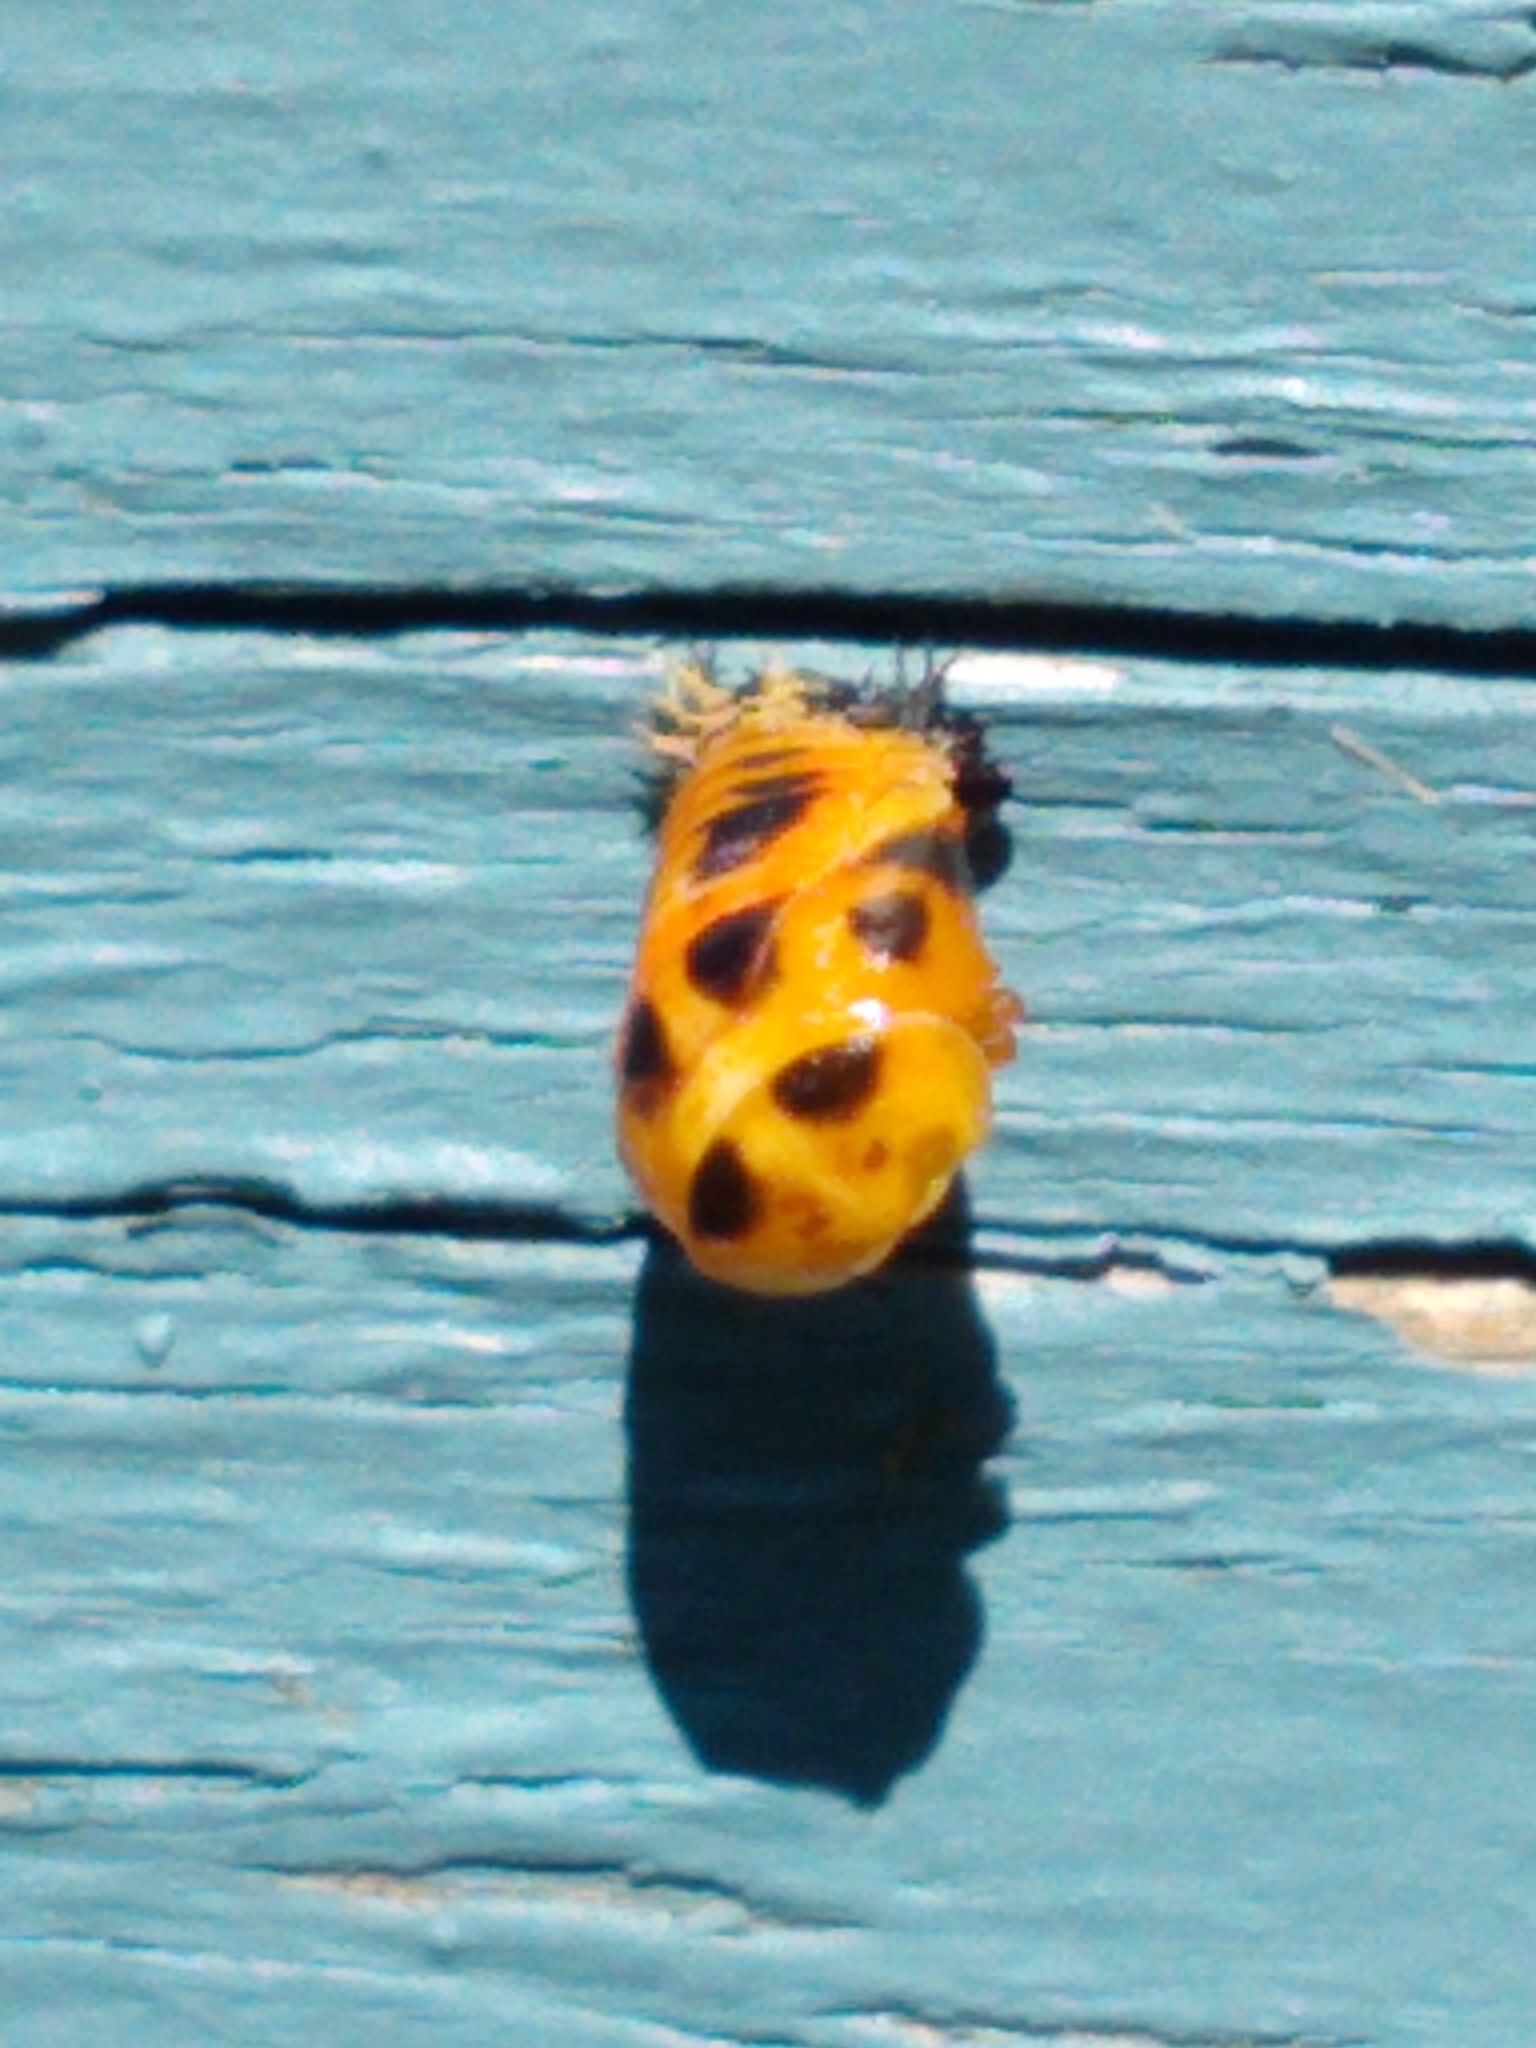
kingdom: Animalia
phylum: Arthropoda
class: Insecta
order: Coleoptera
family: Coccinellidae
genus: Harmonia
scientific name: Harmonia axyridis
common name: Harlequin ladybird
